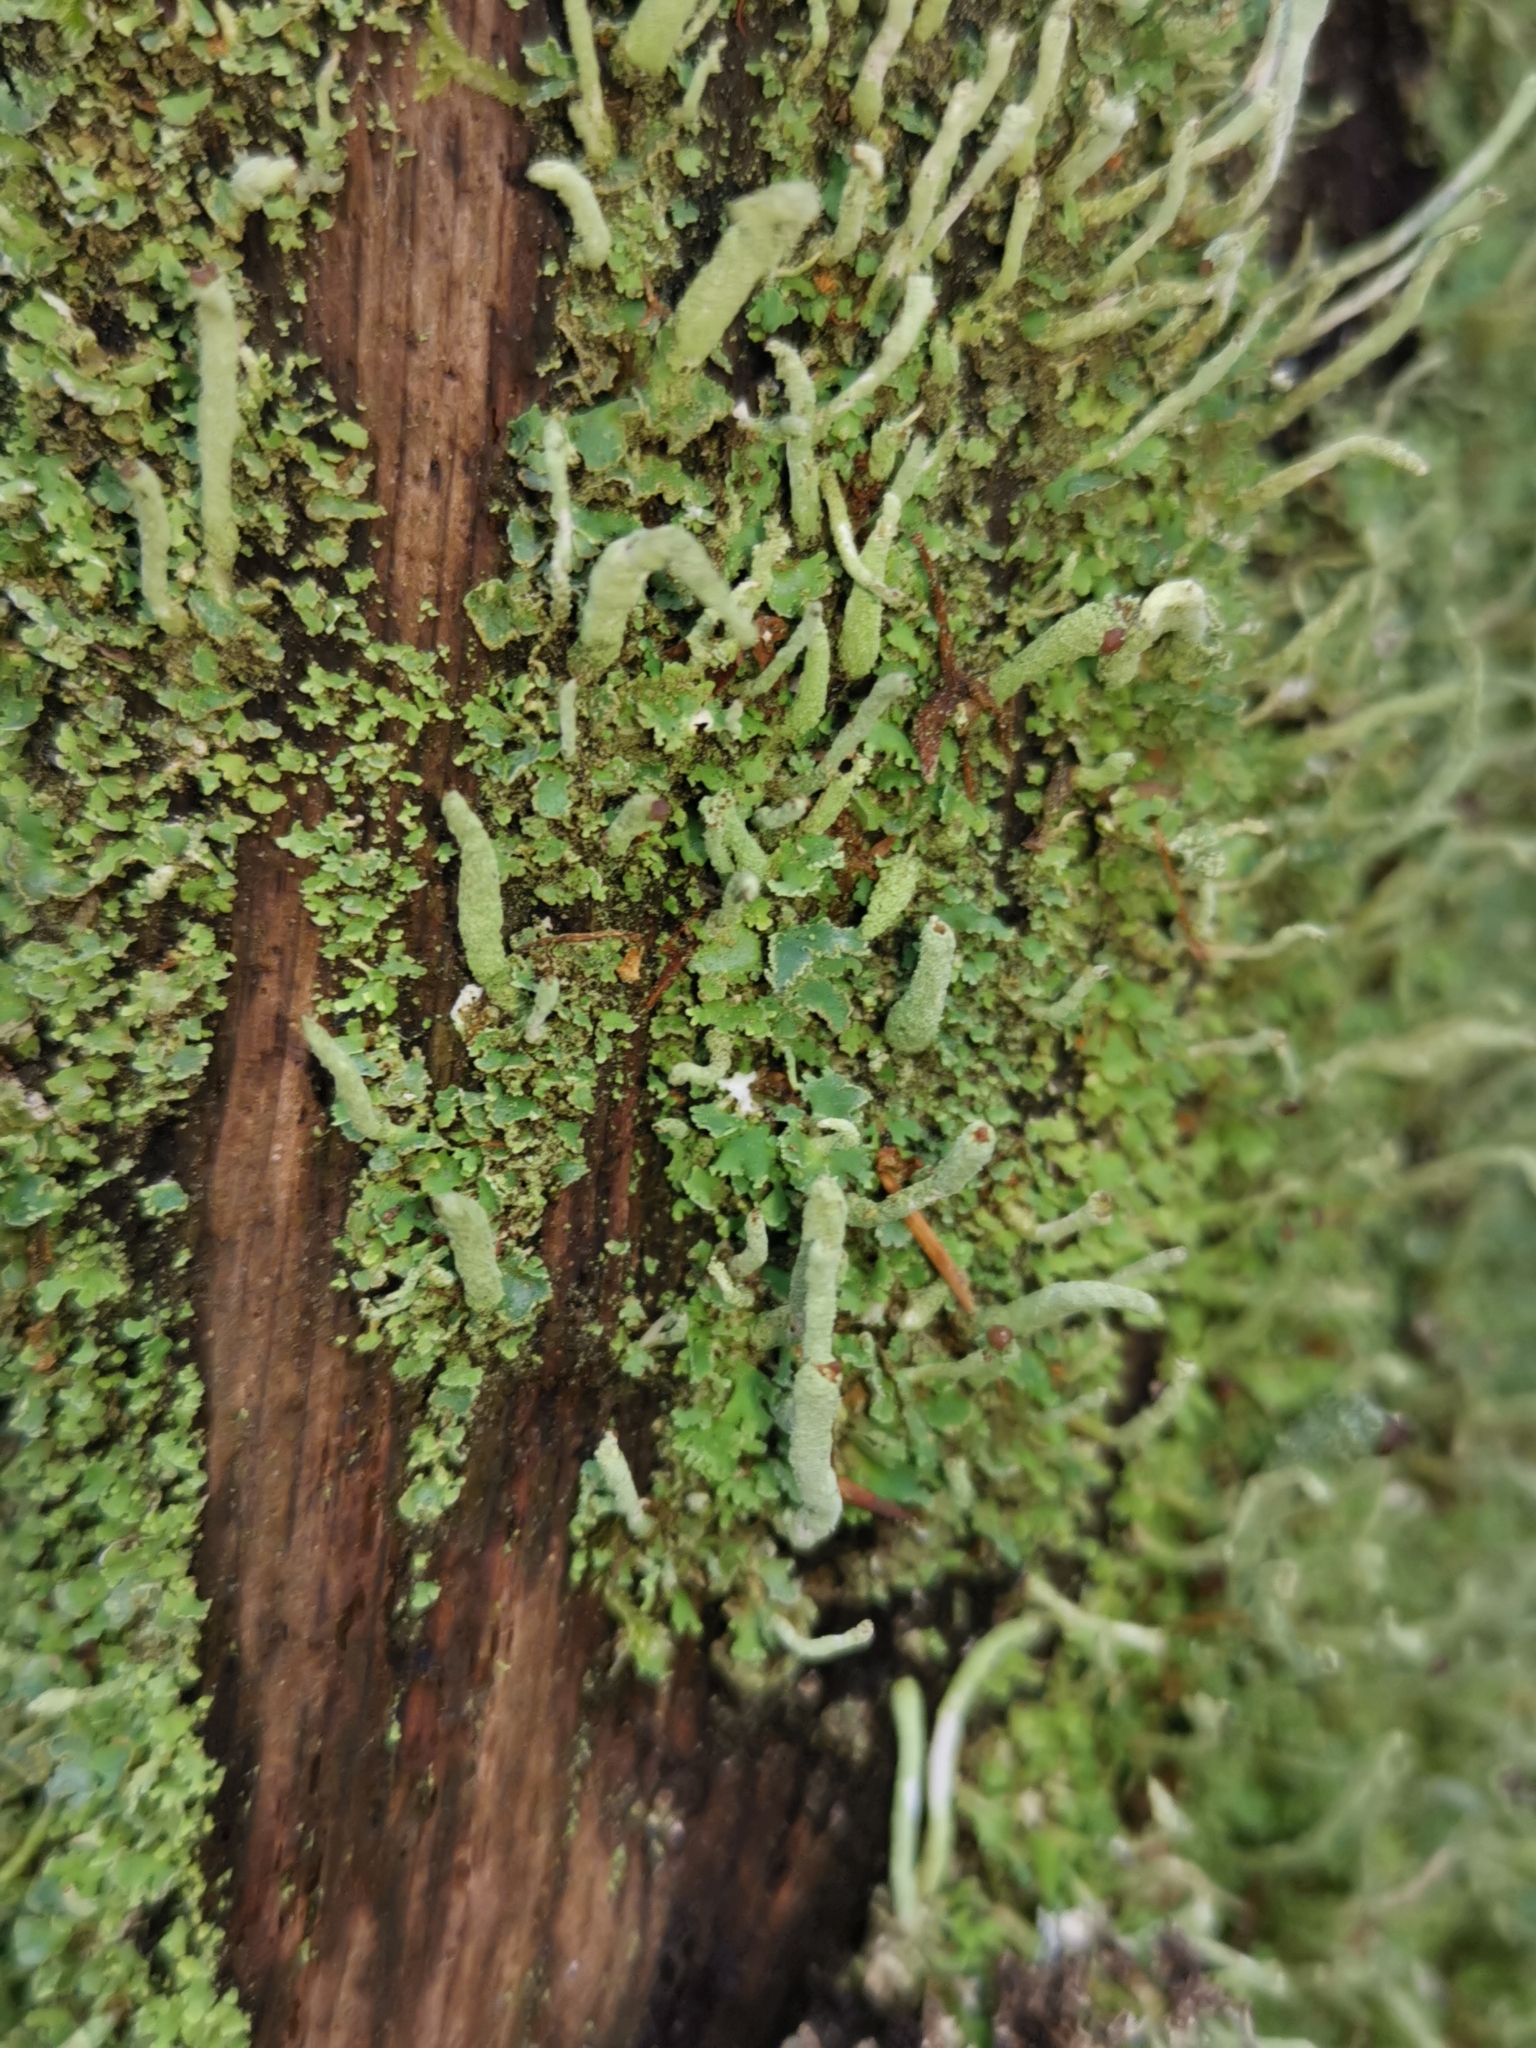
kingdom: Fungi
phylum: Ascomycota
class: Lecanoromycetes
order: Lecanorales
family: Cladoniaceae
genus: Cladonia
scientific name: Cladonia coniocraea
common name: Common powderhorn
